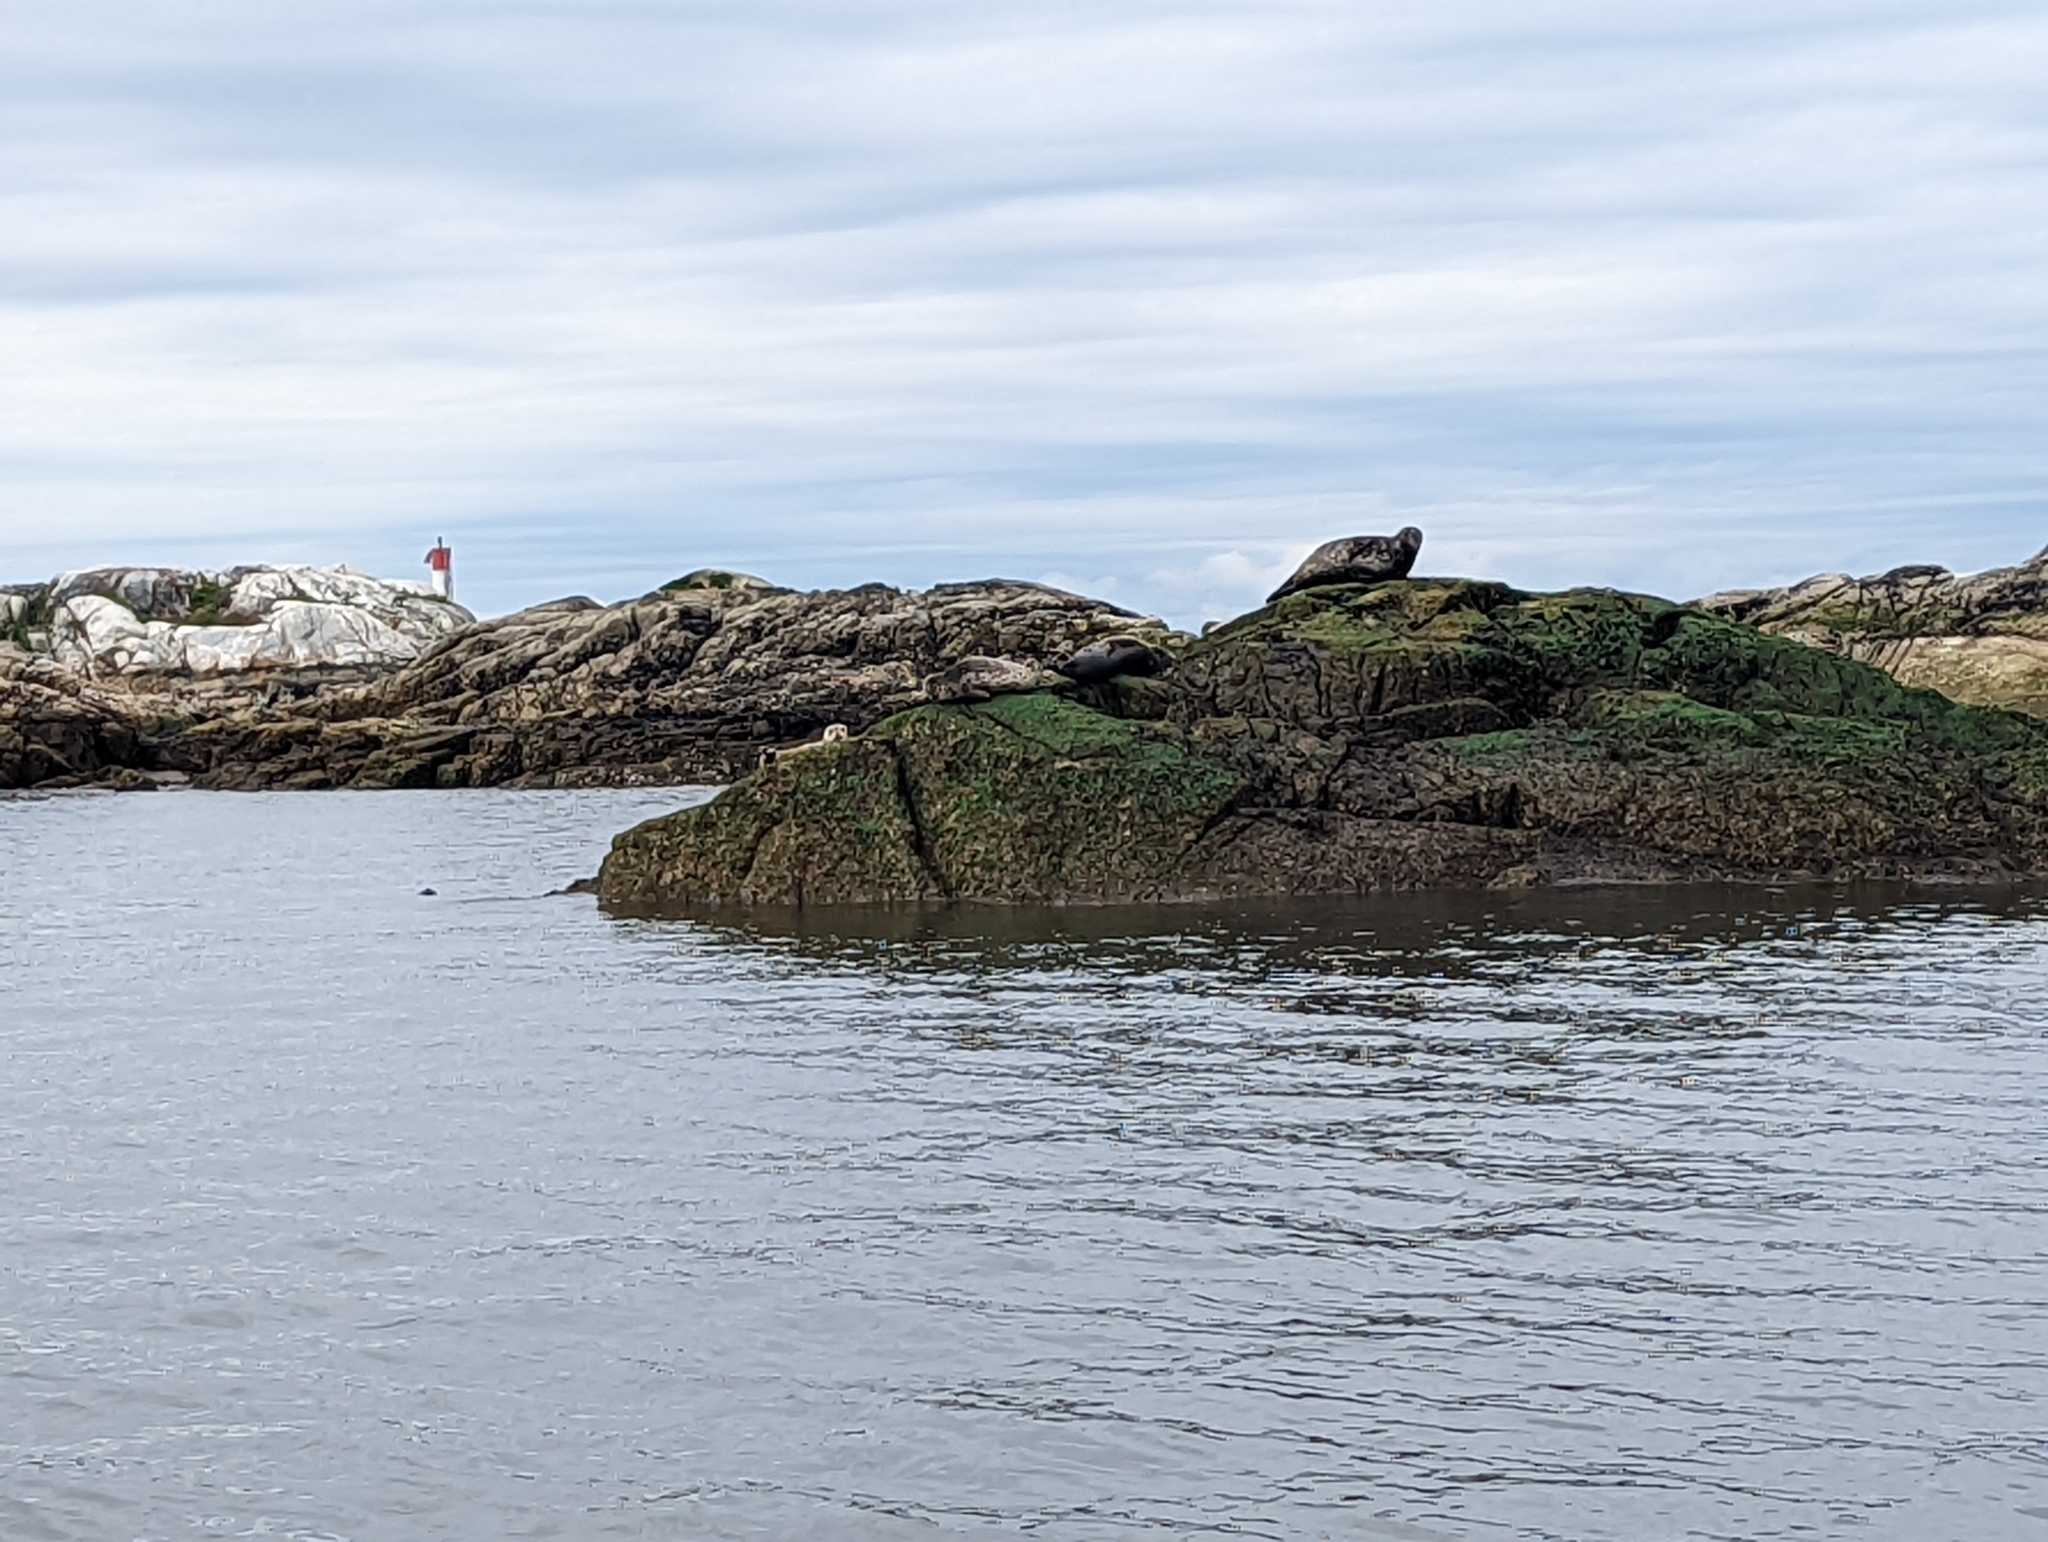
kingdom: Animalia
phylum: Chordata
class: Mammalia
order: Carnivora
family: Phocidae
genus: Phoca
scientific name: Phoca vitulina
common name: Harbor seal
